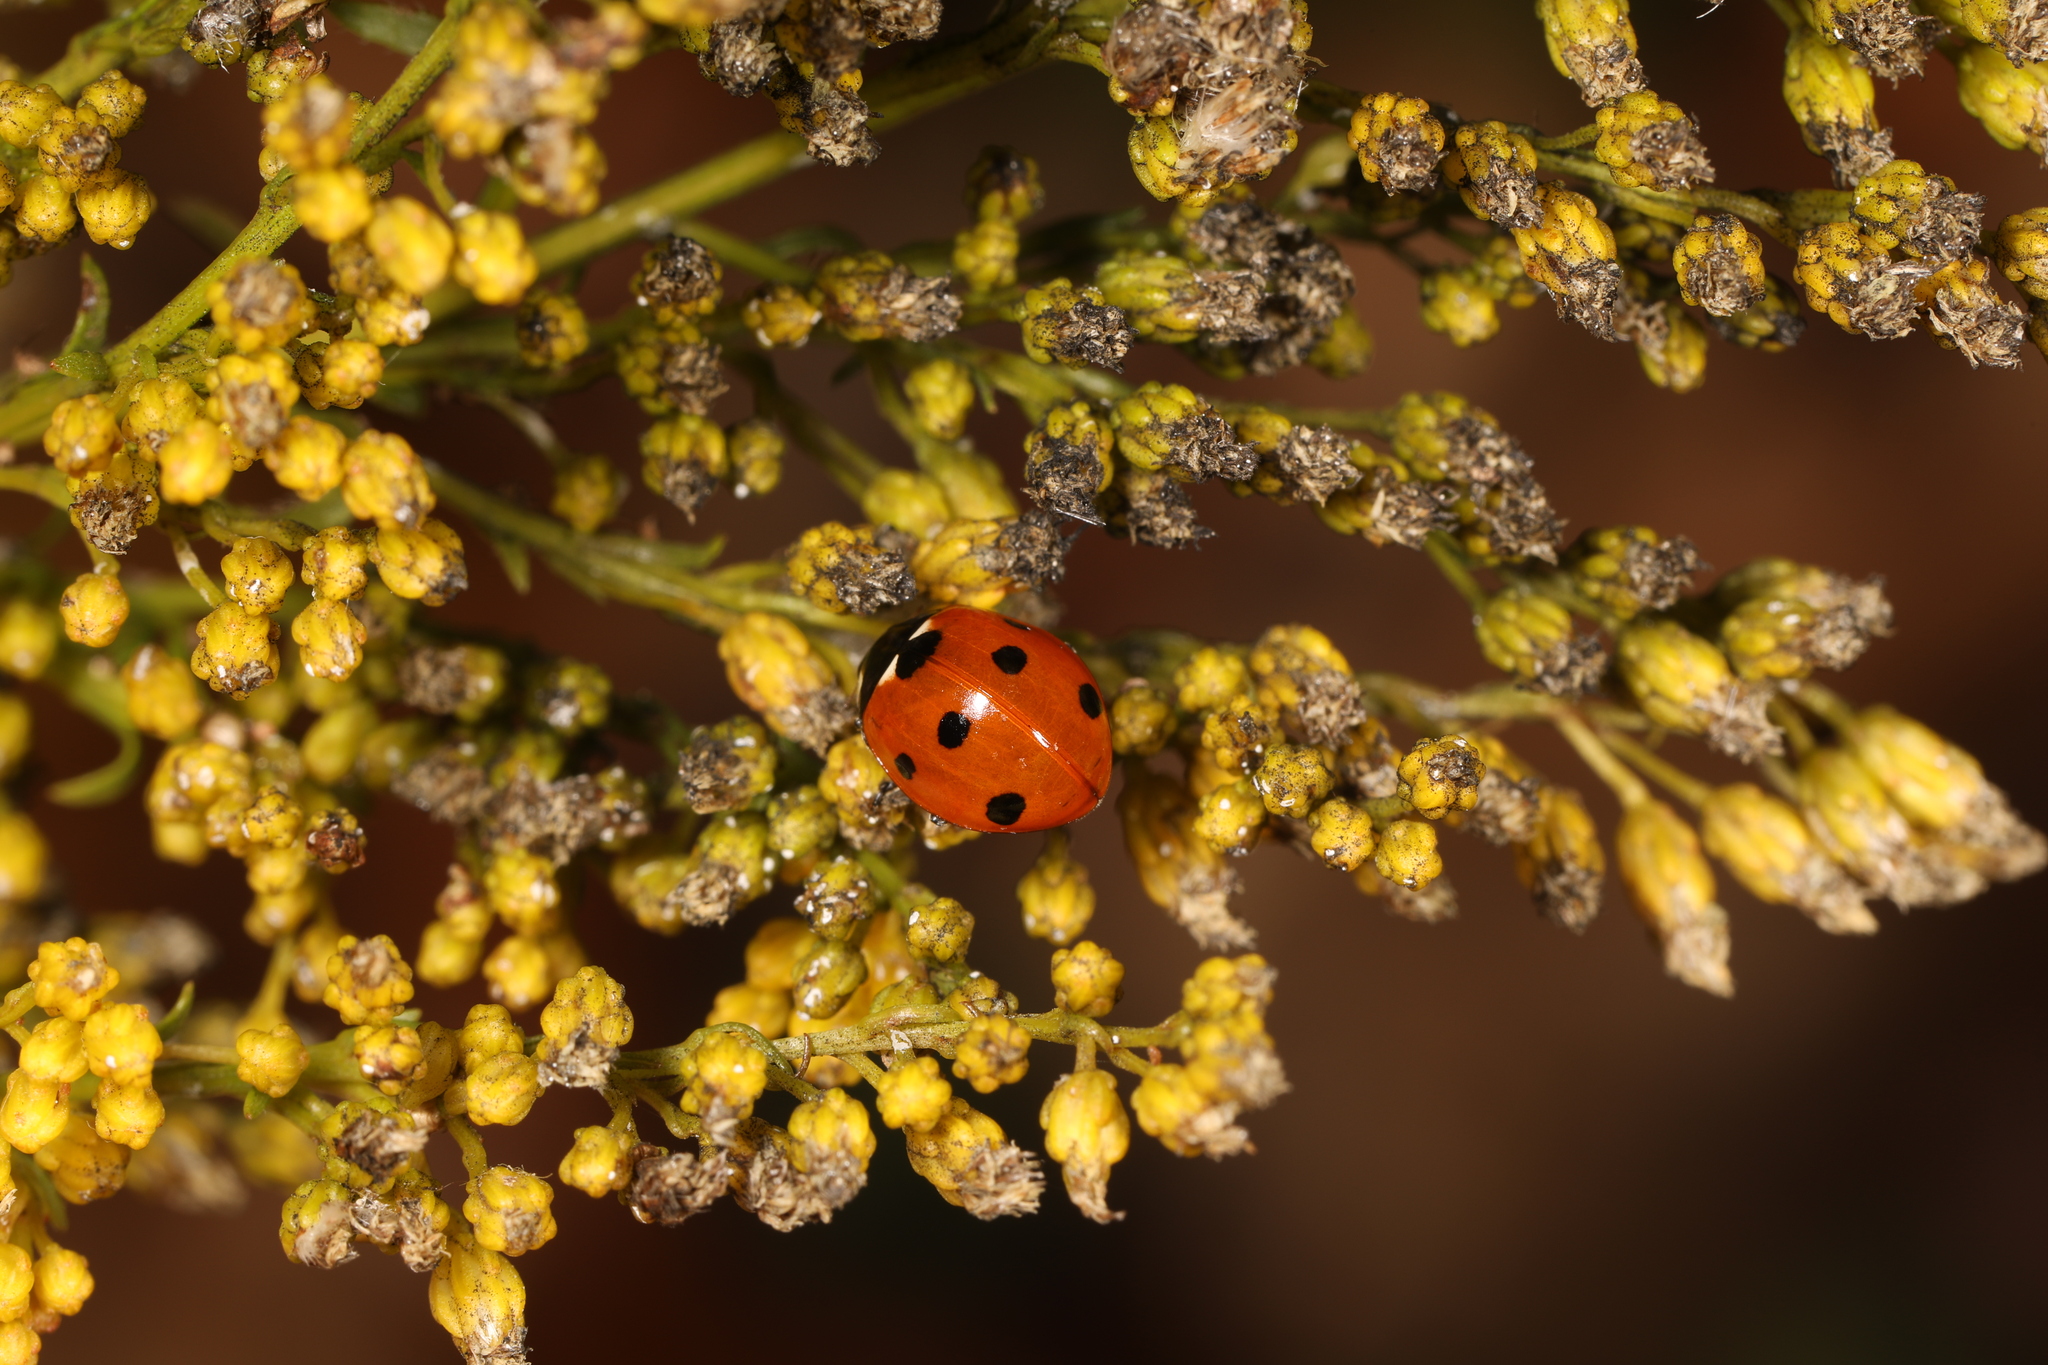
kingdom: Animalia
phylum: Arthropoda
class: Insecta
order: Coleoptera
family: Coccinellidae
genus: Coccinella
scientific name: Coccinella septempunctata
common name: Sevenspotted lady beetle
